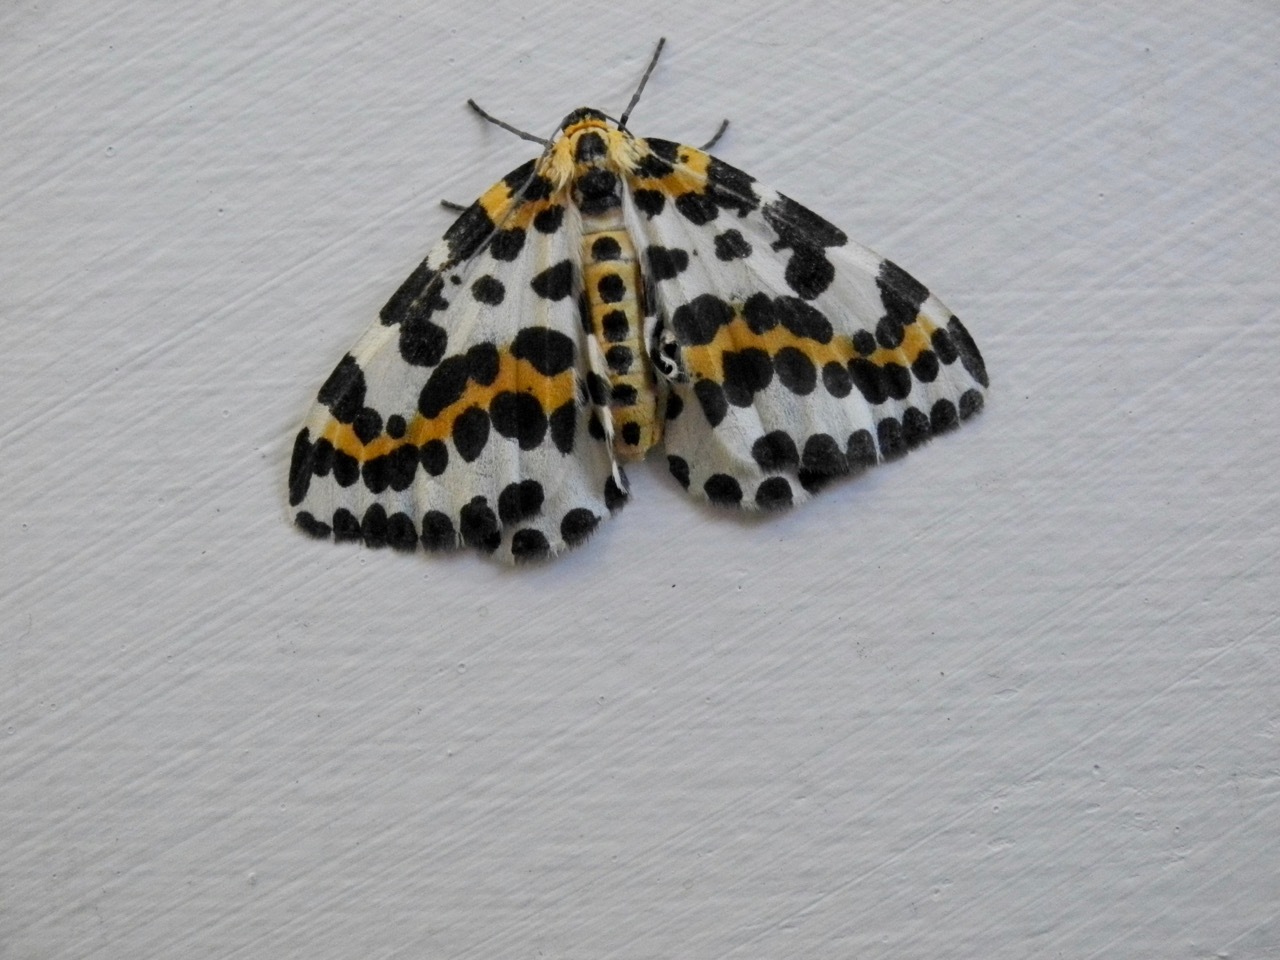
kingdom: Animalia
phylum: Arthropoda
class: Insecta
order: Lepidoptera
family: Geometridae
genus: Abraxas
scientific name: Abraxas grossulariata
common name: Magpie
